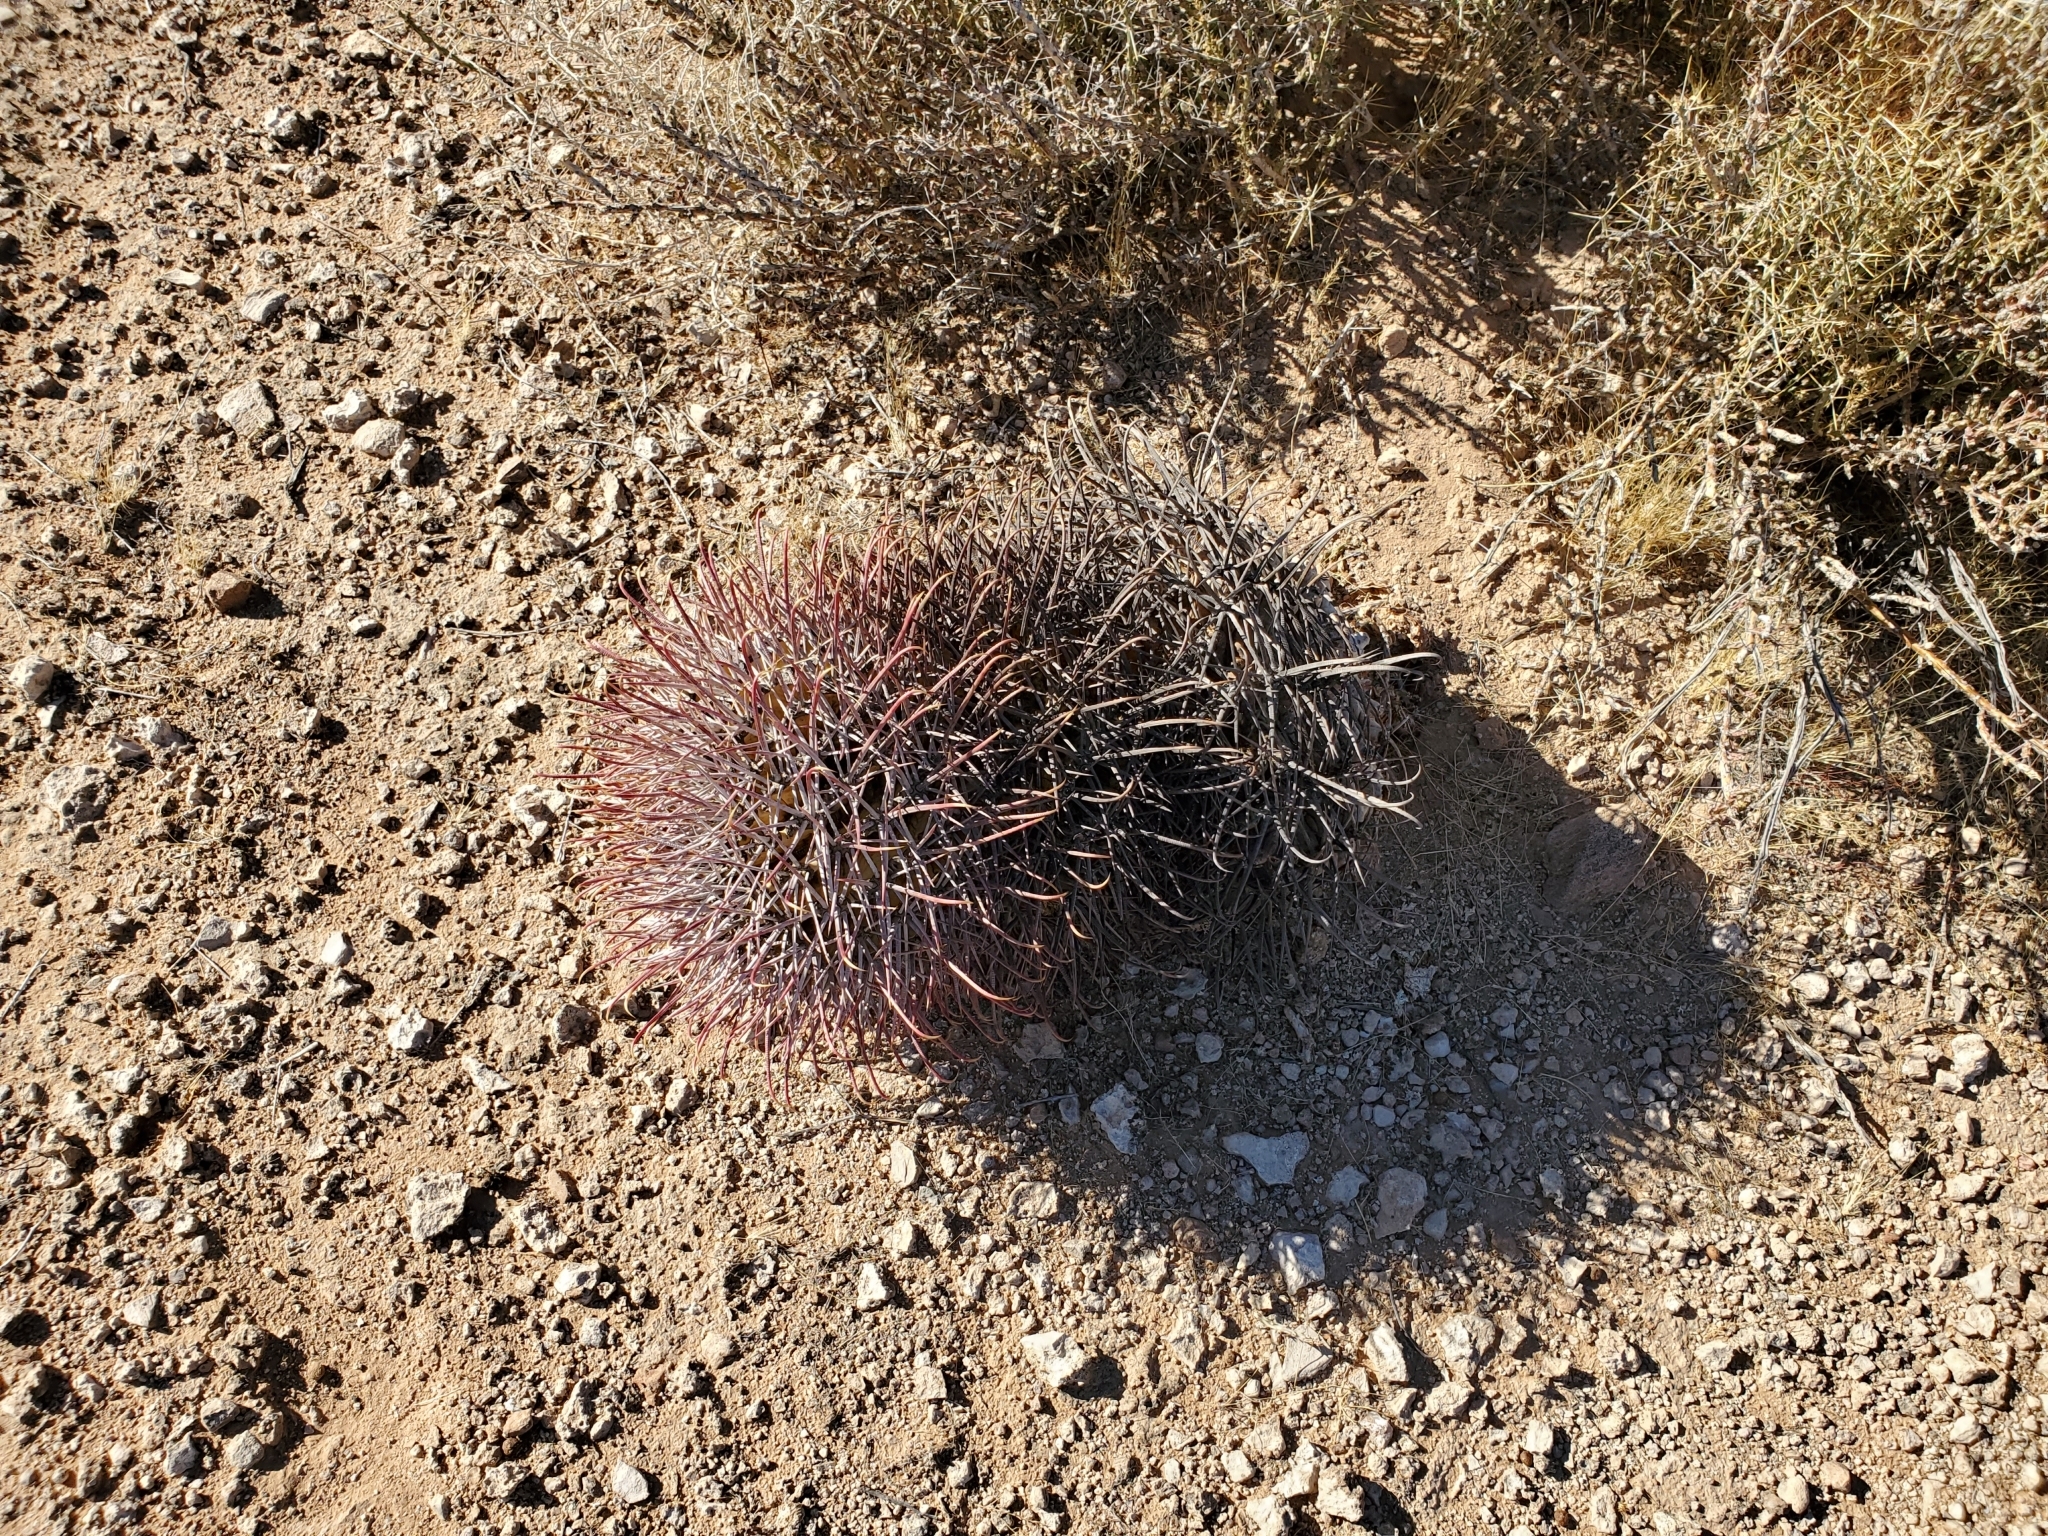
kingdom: Plantae
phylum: Tracheophyta
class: Magnoliopsida
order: Caryophyllales
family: Cactaceae
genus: Ferocactus
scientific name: Ferocactus cylindraceus
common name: California barrel cactus
